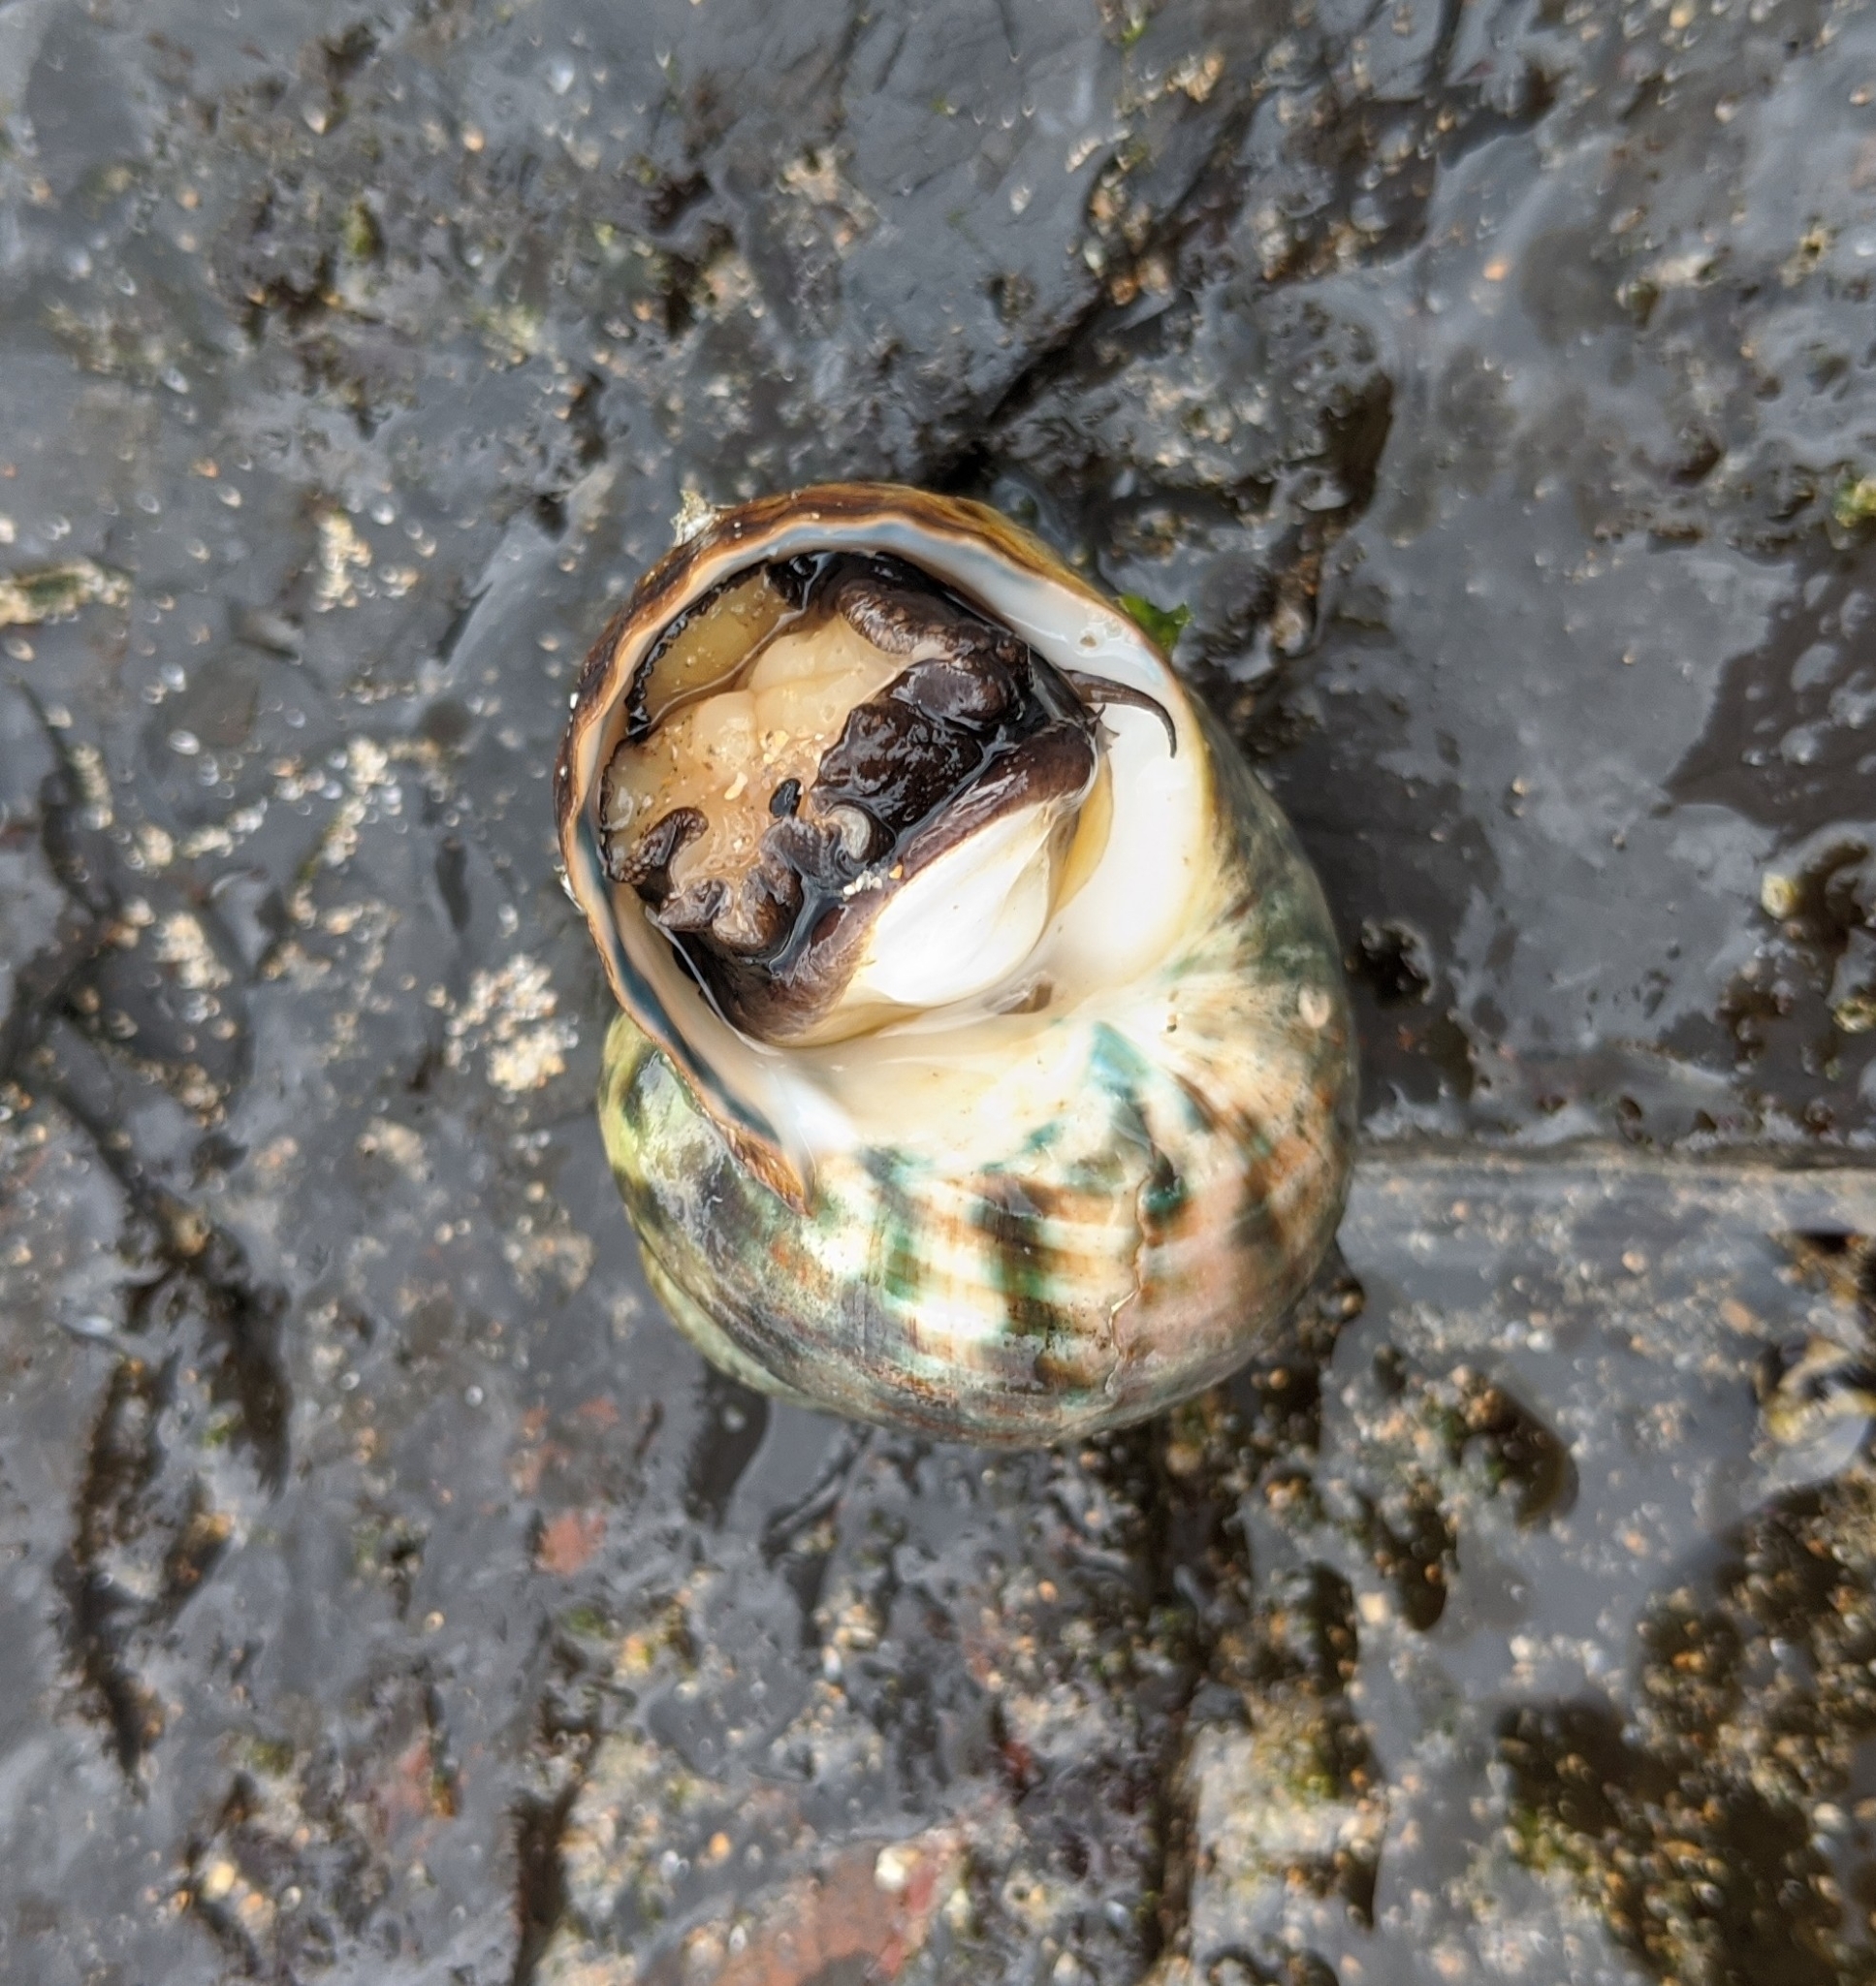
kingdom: Animalia
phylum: Mollusca
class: Gastropoda
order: Trochida
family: Turbinidae
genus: Lunella
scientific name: Lunella undulata
